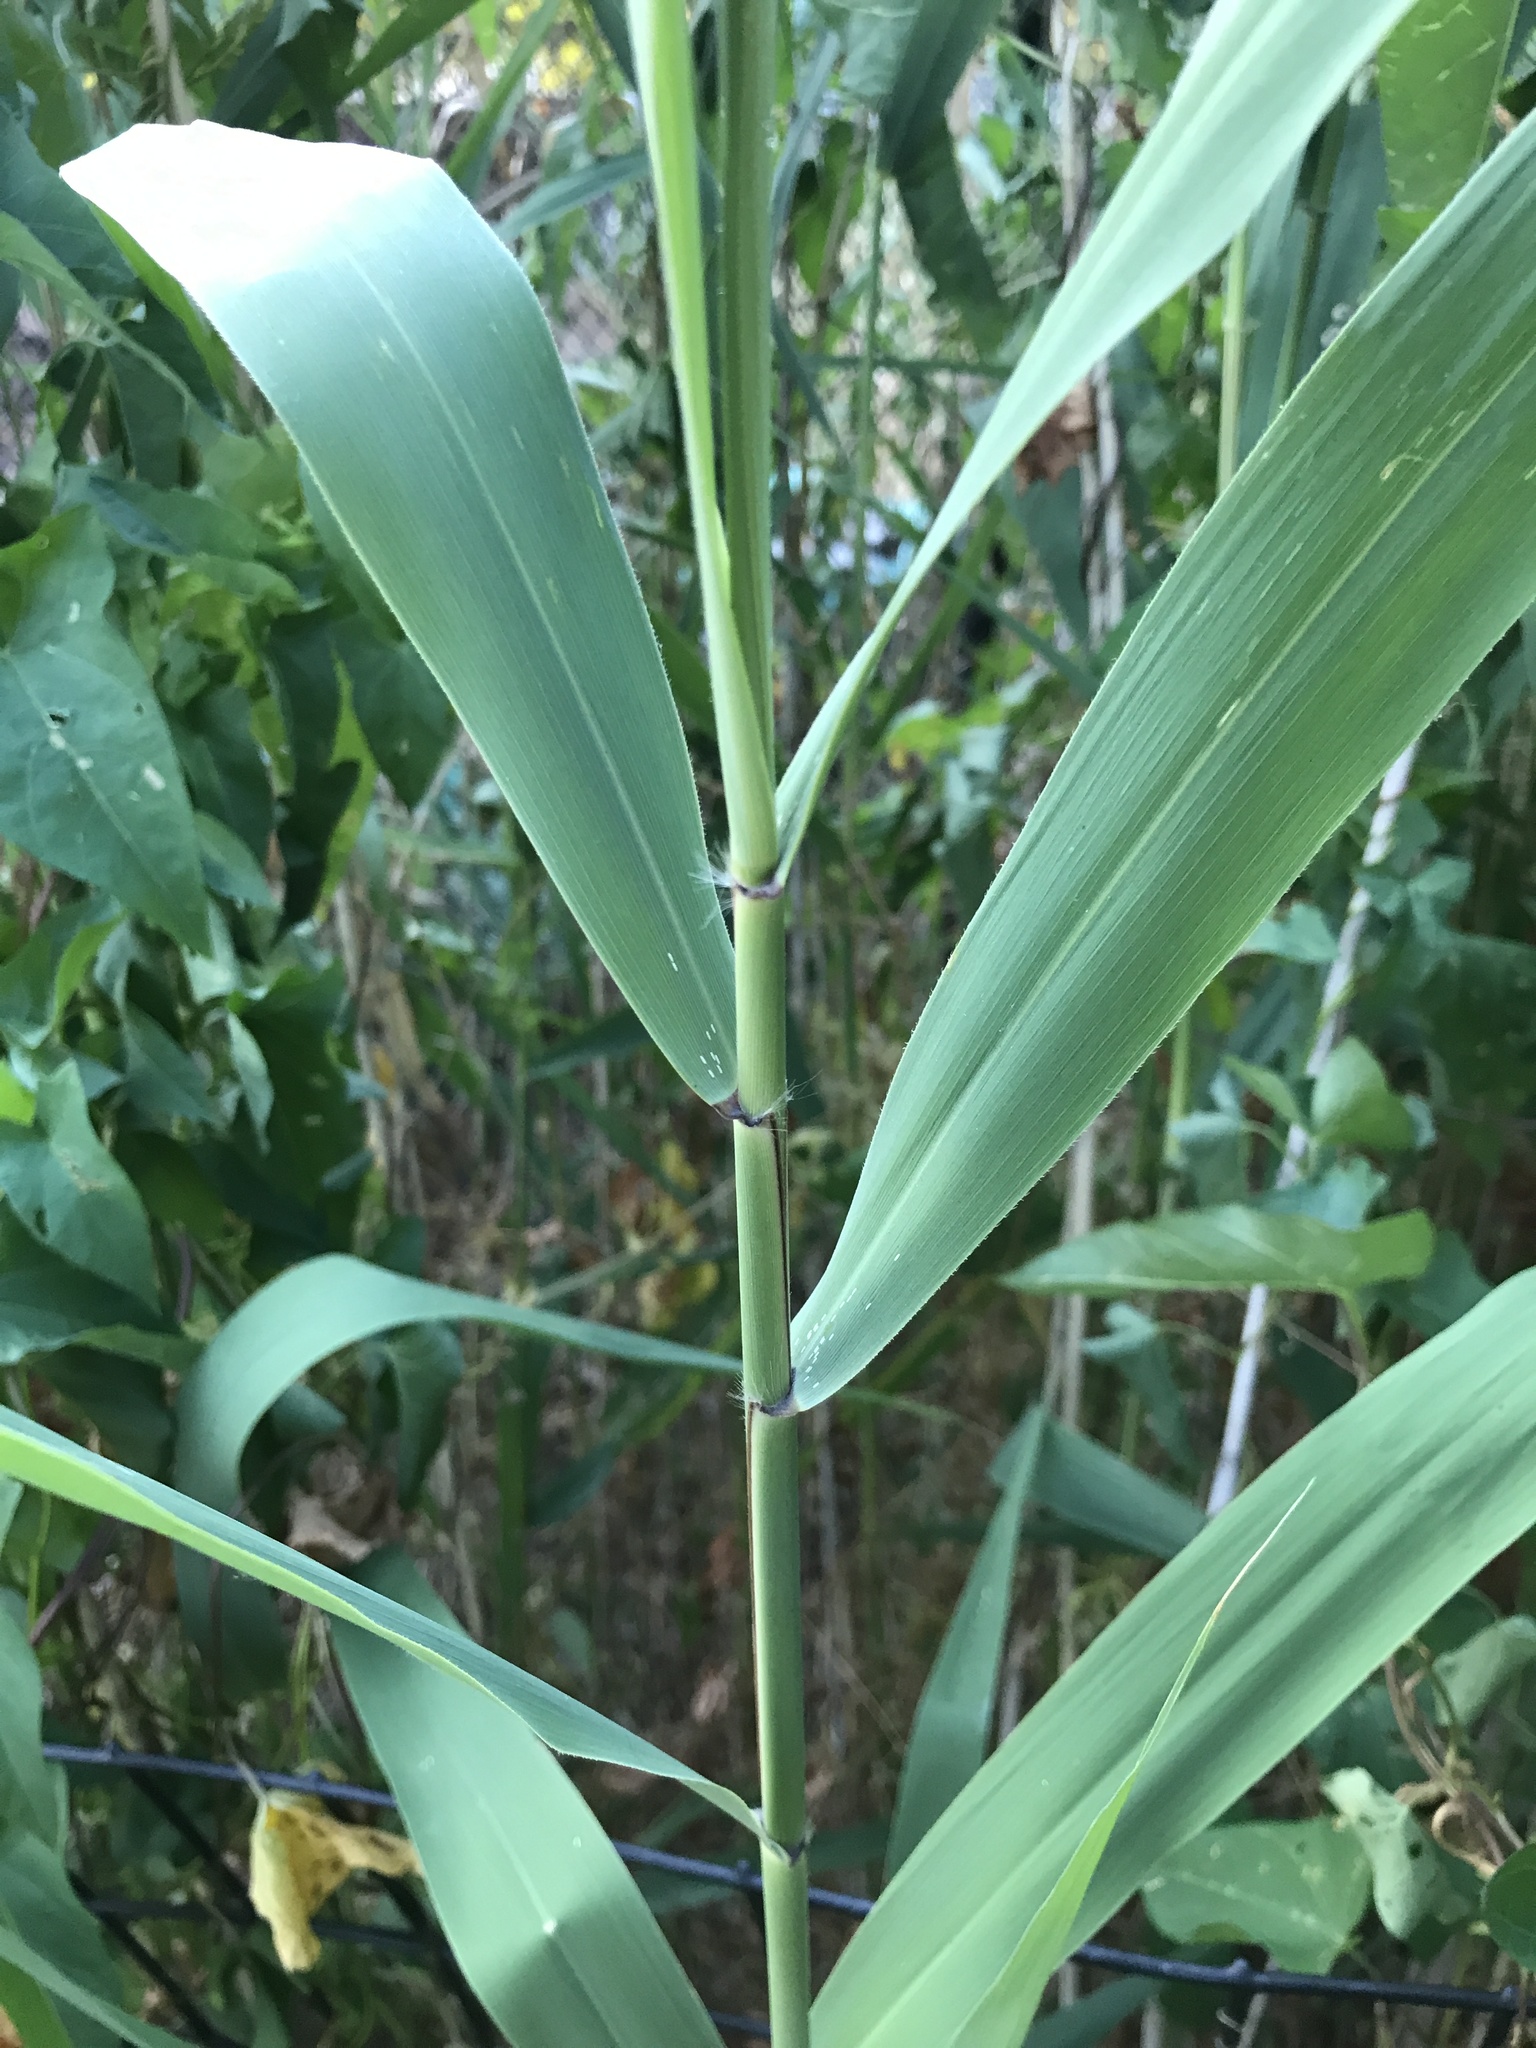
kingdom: Plantae
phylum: Tracheophyta
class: Liliopsida
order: Poales
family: Poaceae
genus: Phragmites
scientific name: Phragmites australis
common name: Common reed
